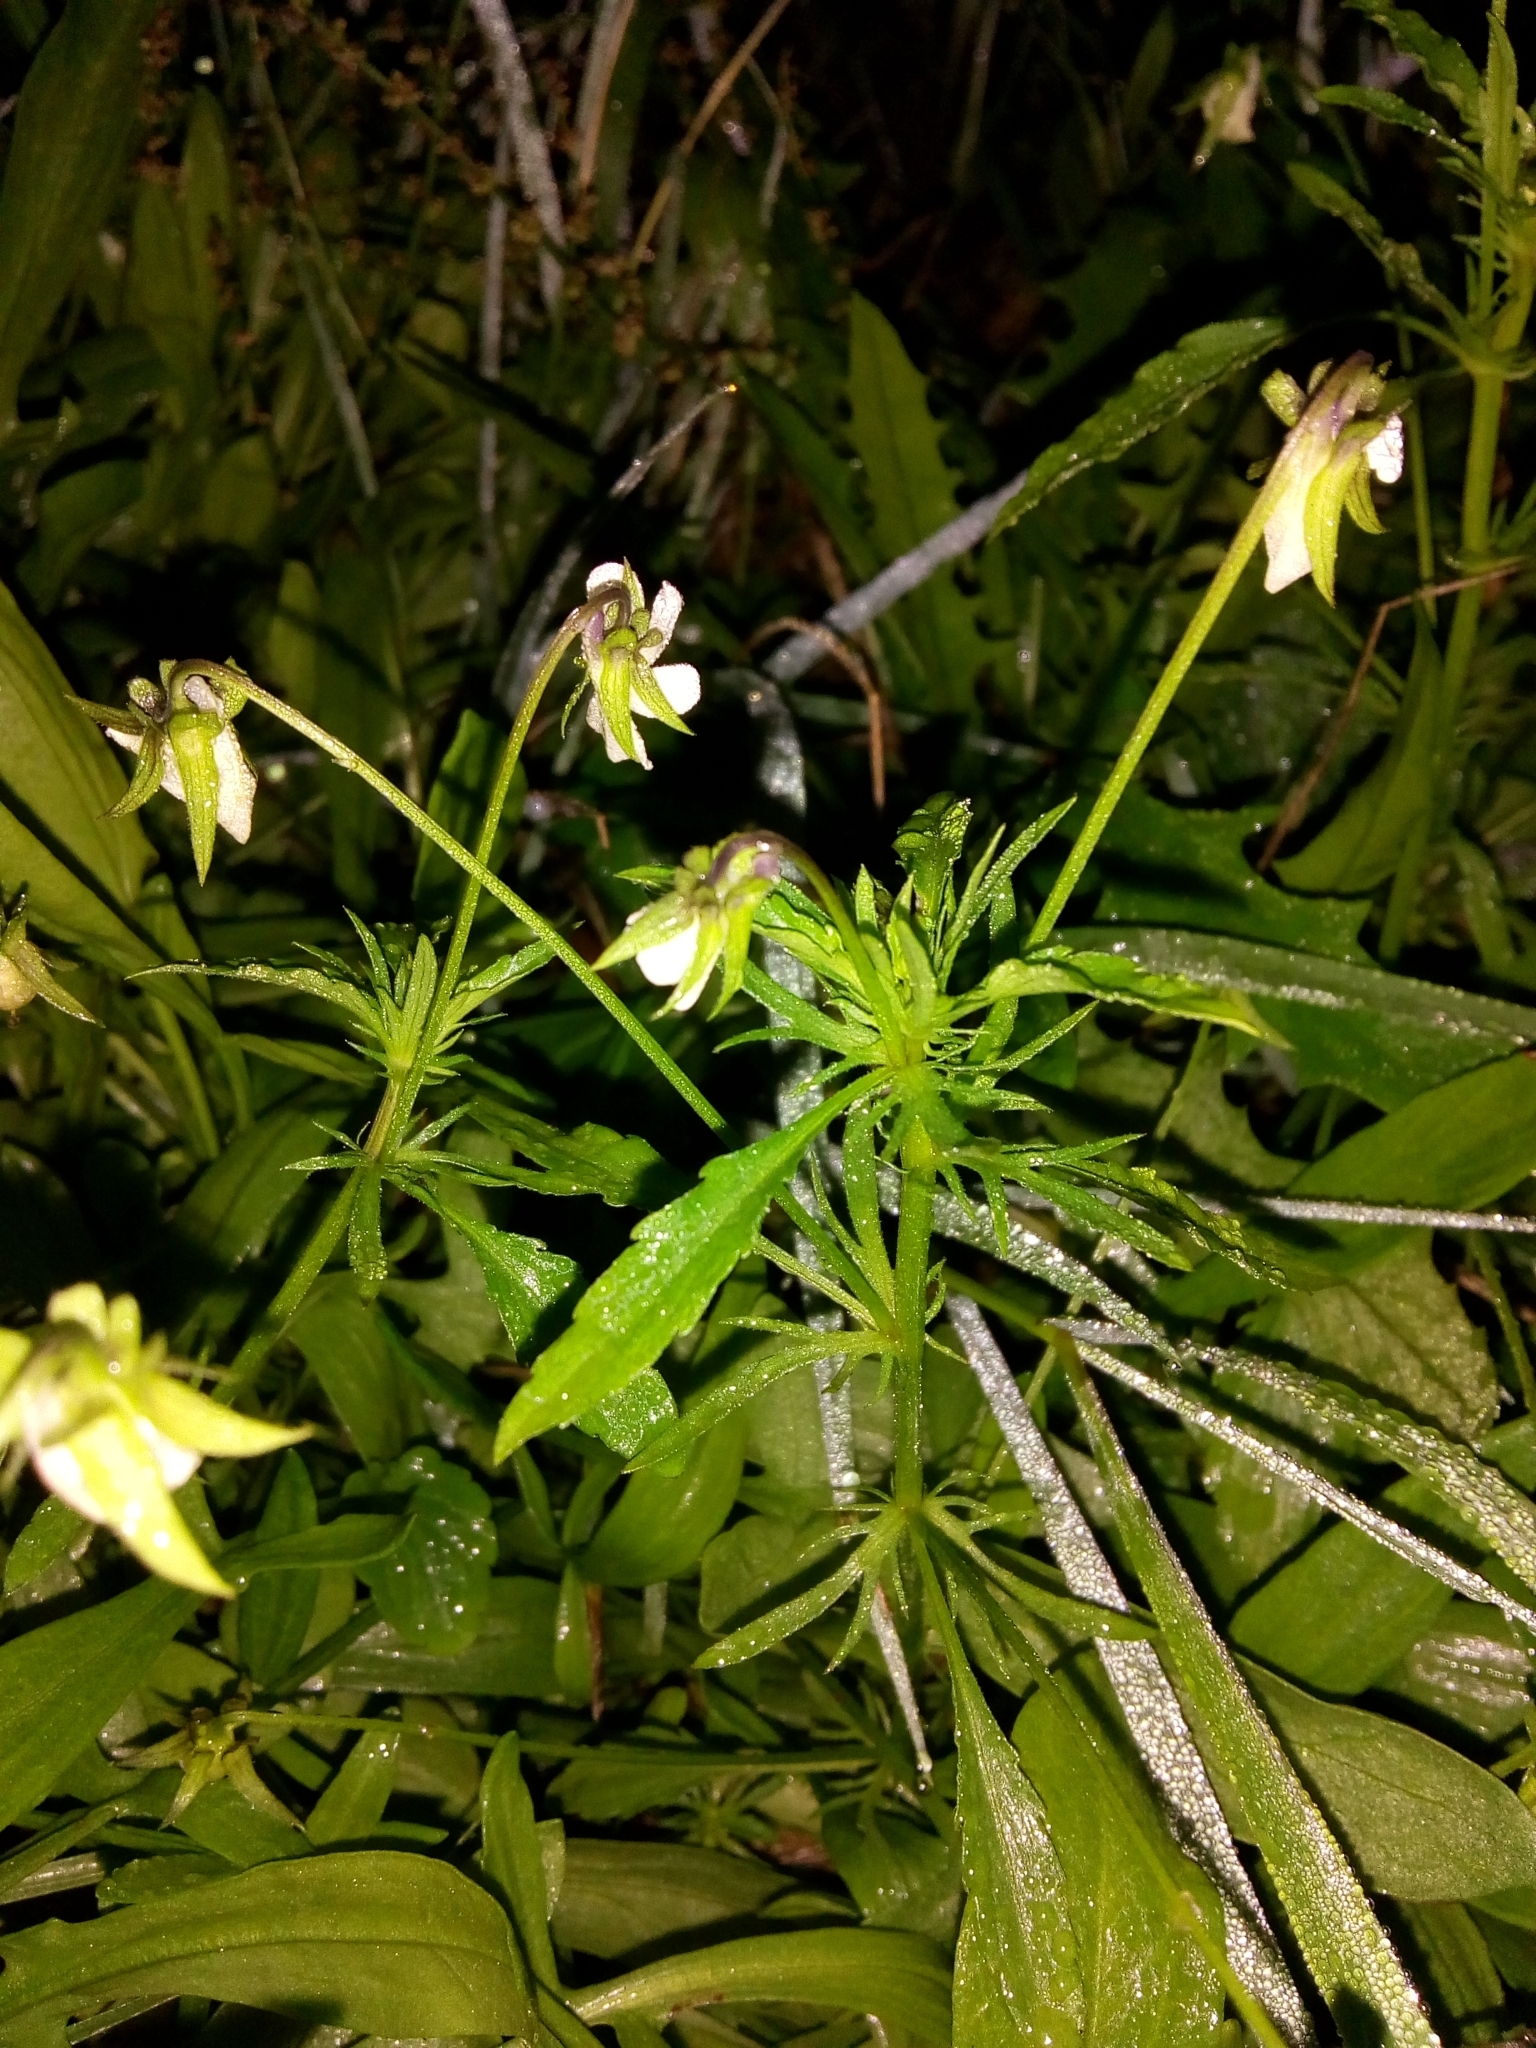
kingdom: Plantae
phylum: Tracheophyta
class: Magnoliopsida
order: Malpighiales
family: Violaceae
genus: Viola
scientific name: Viola arvensis
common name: Field pansy
